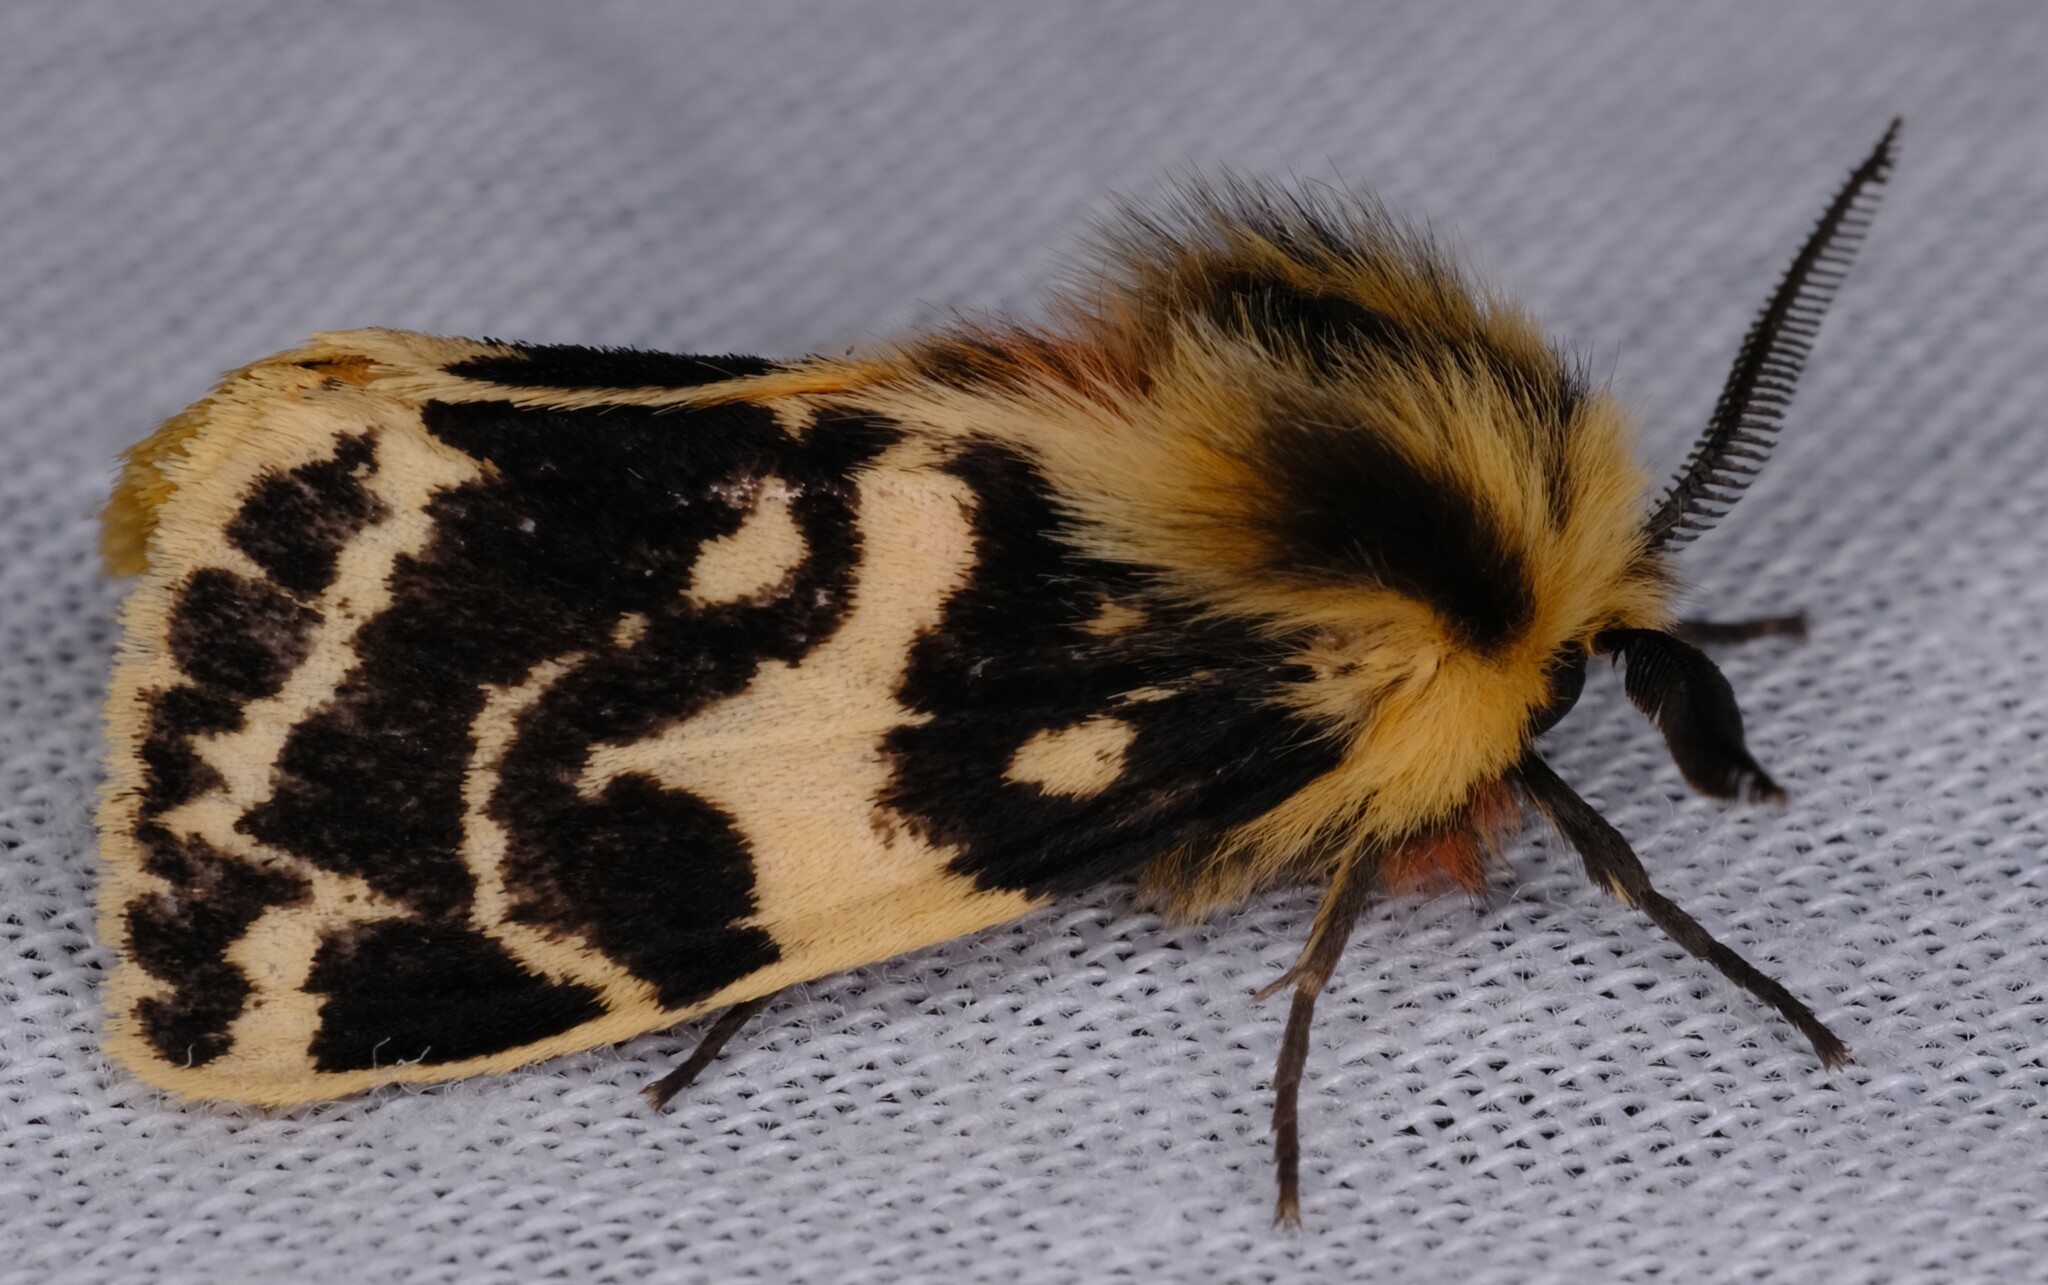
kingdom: Animalia
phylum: Arthropoda
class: Insecta
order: Lepidoptera
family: Erebidae
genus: Ardices
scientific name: Ardices curvata
